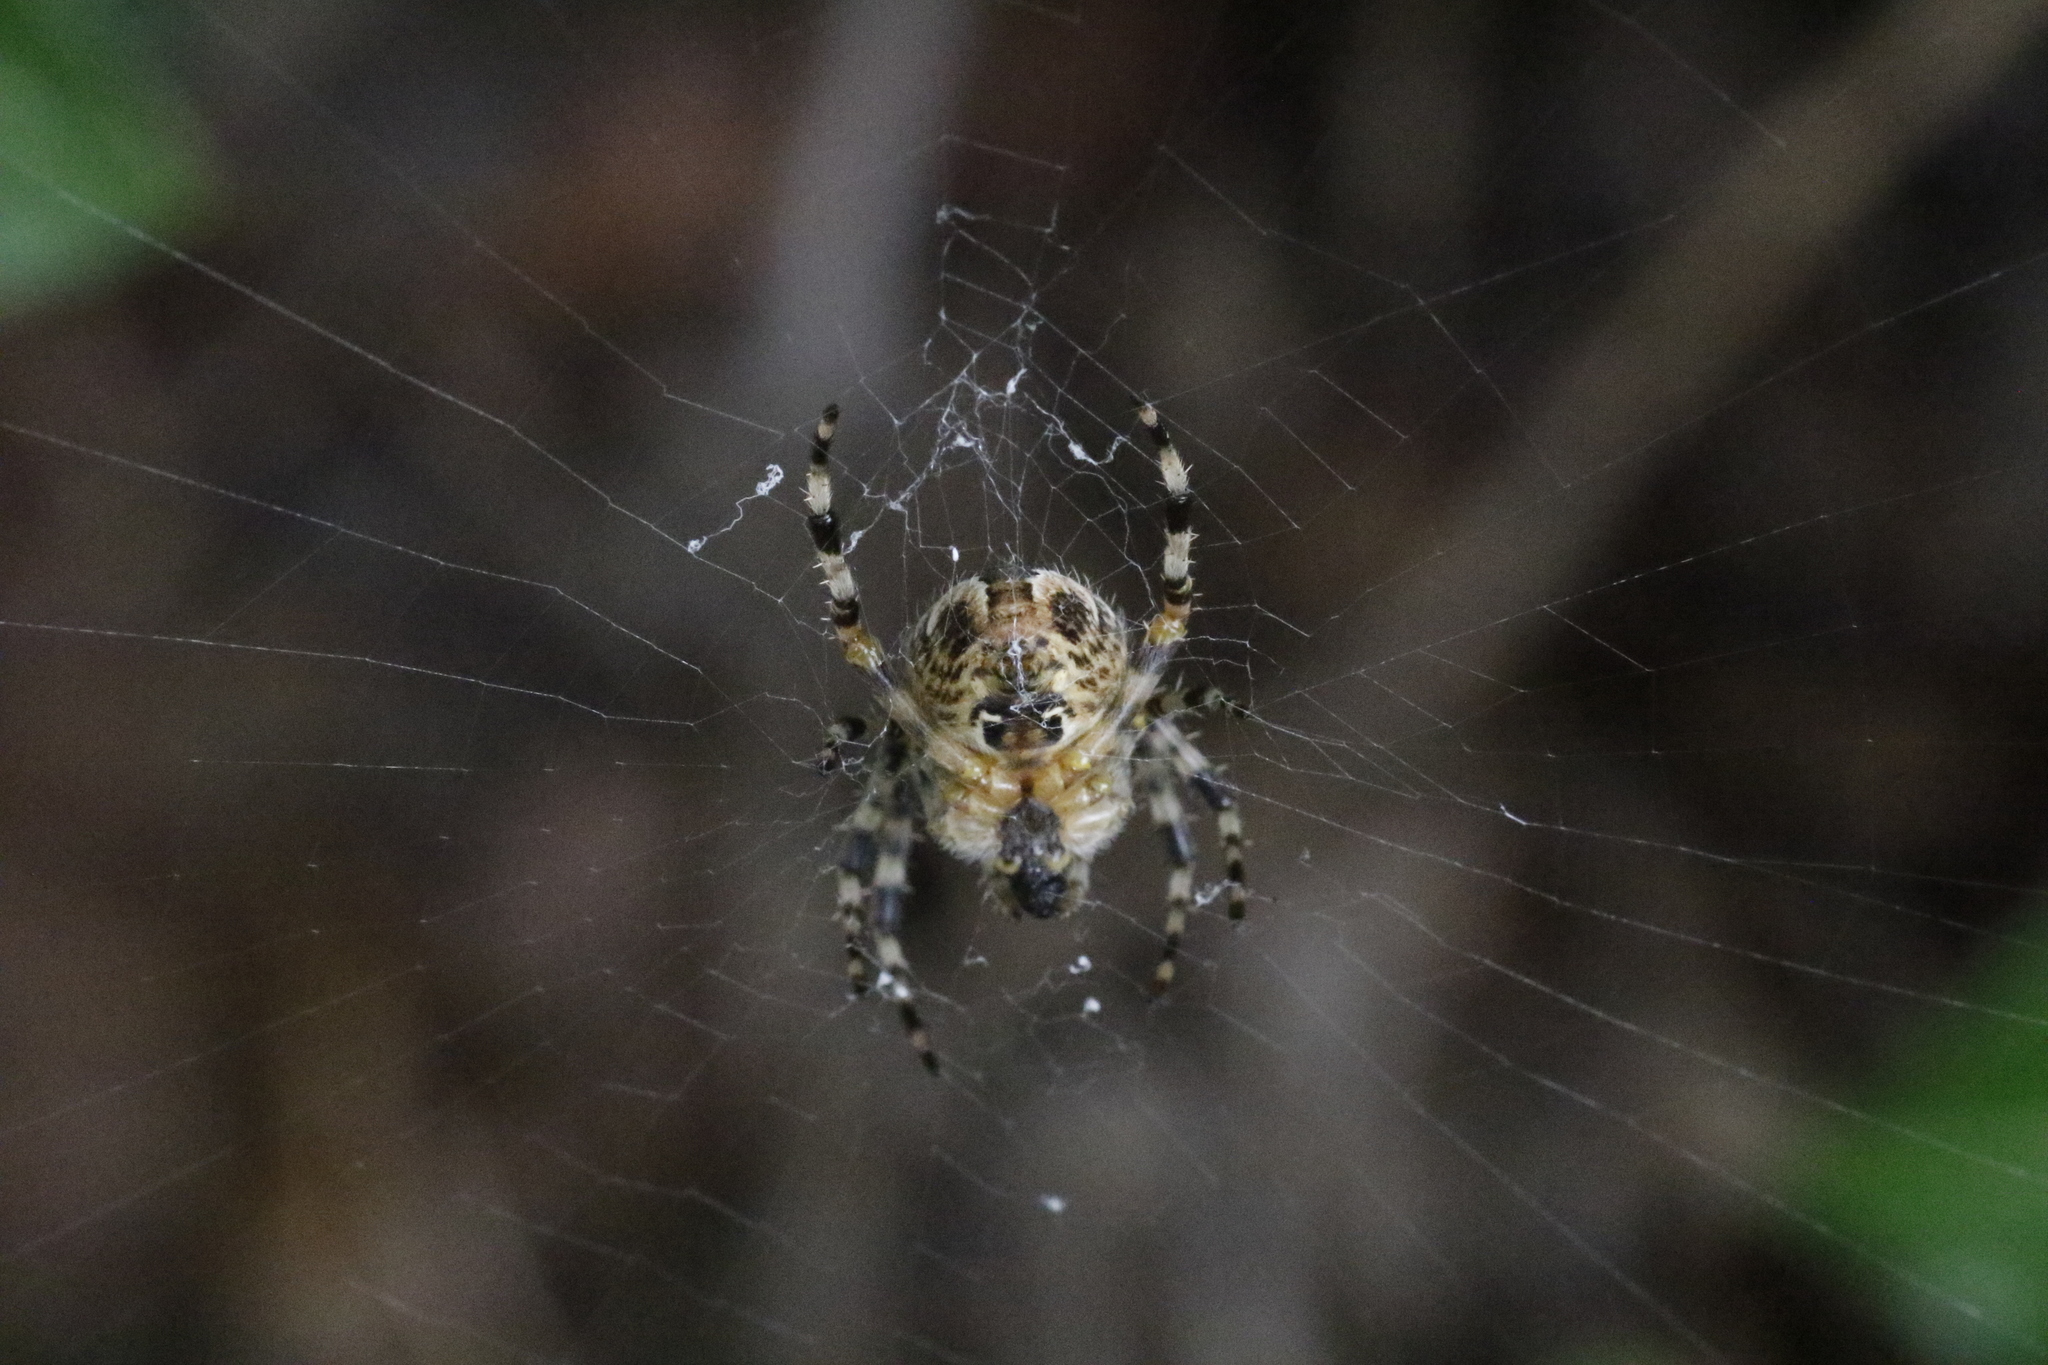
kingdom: Animalia
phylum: Arthropoda
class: Arachnida
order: Araneae
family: Araneidae
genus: Araneus
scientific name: Araneus diadematus
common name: Cross orbweaver
